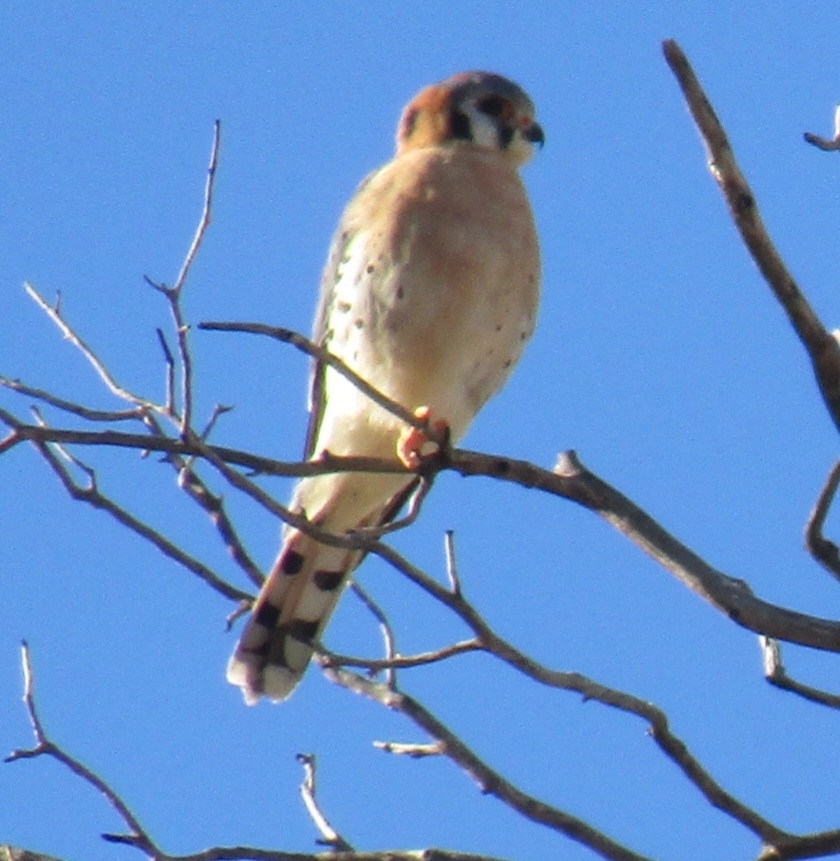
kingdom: Animalia
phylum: Chordata
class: Aves
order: Falconiformes
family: Falconidae
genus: Falco
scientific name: Falco sparverius
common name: American kestrel
